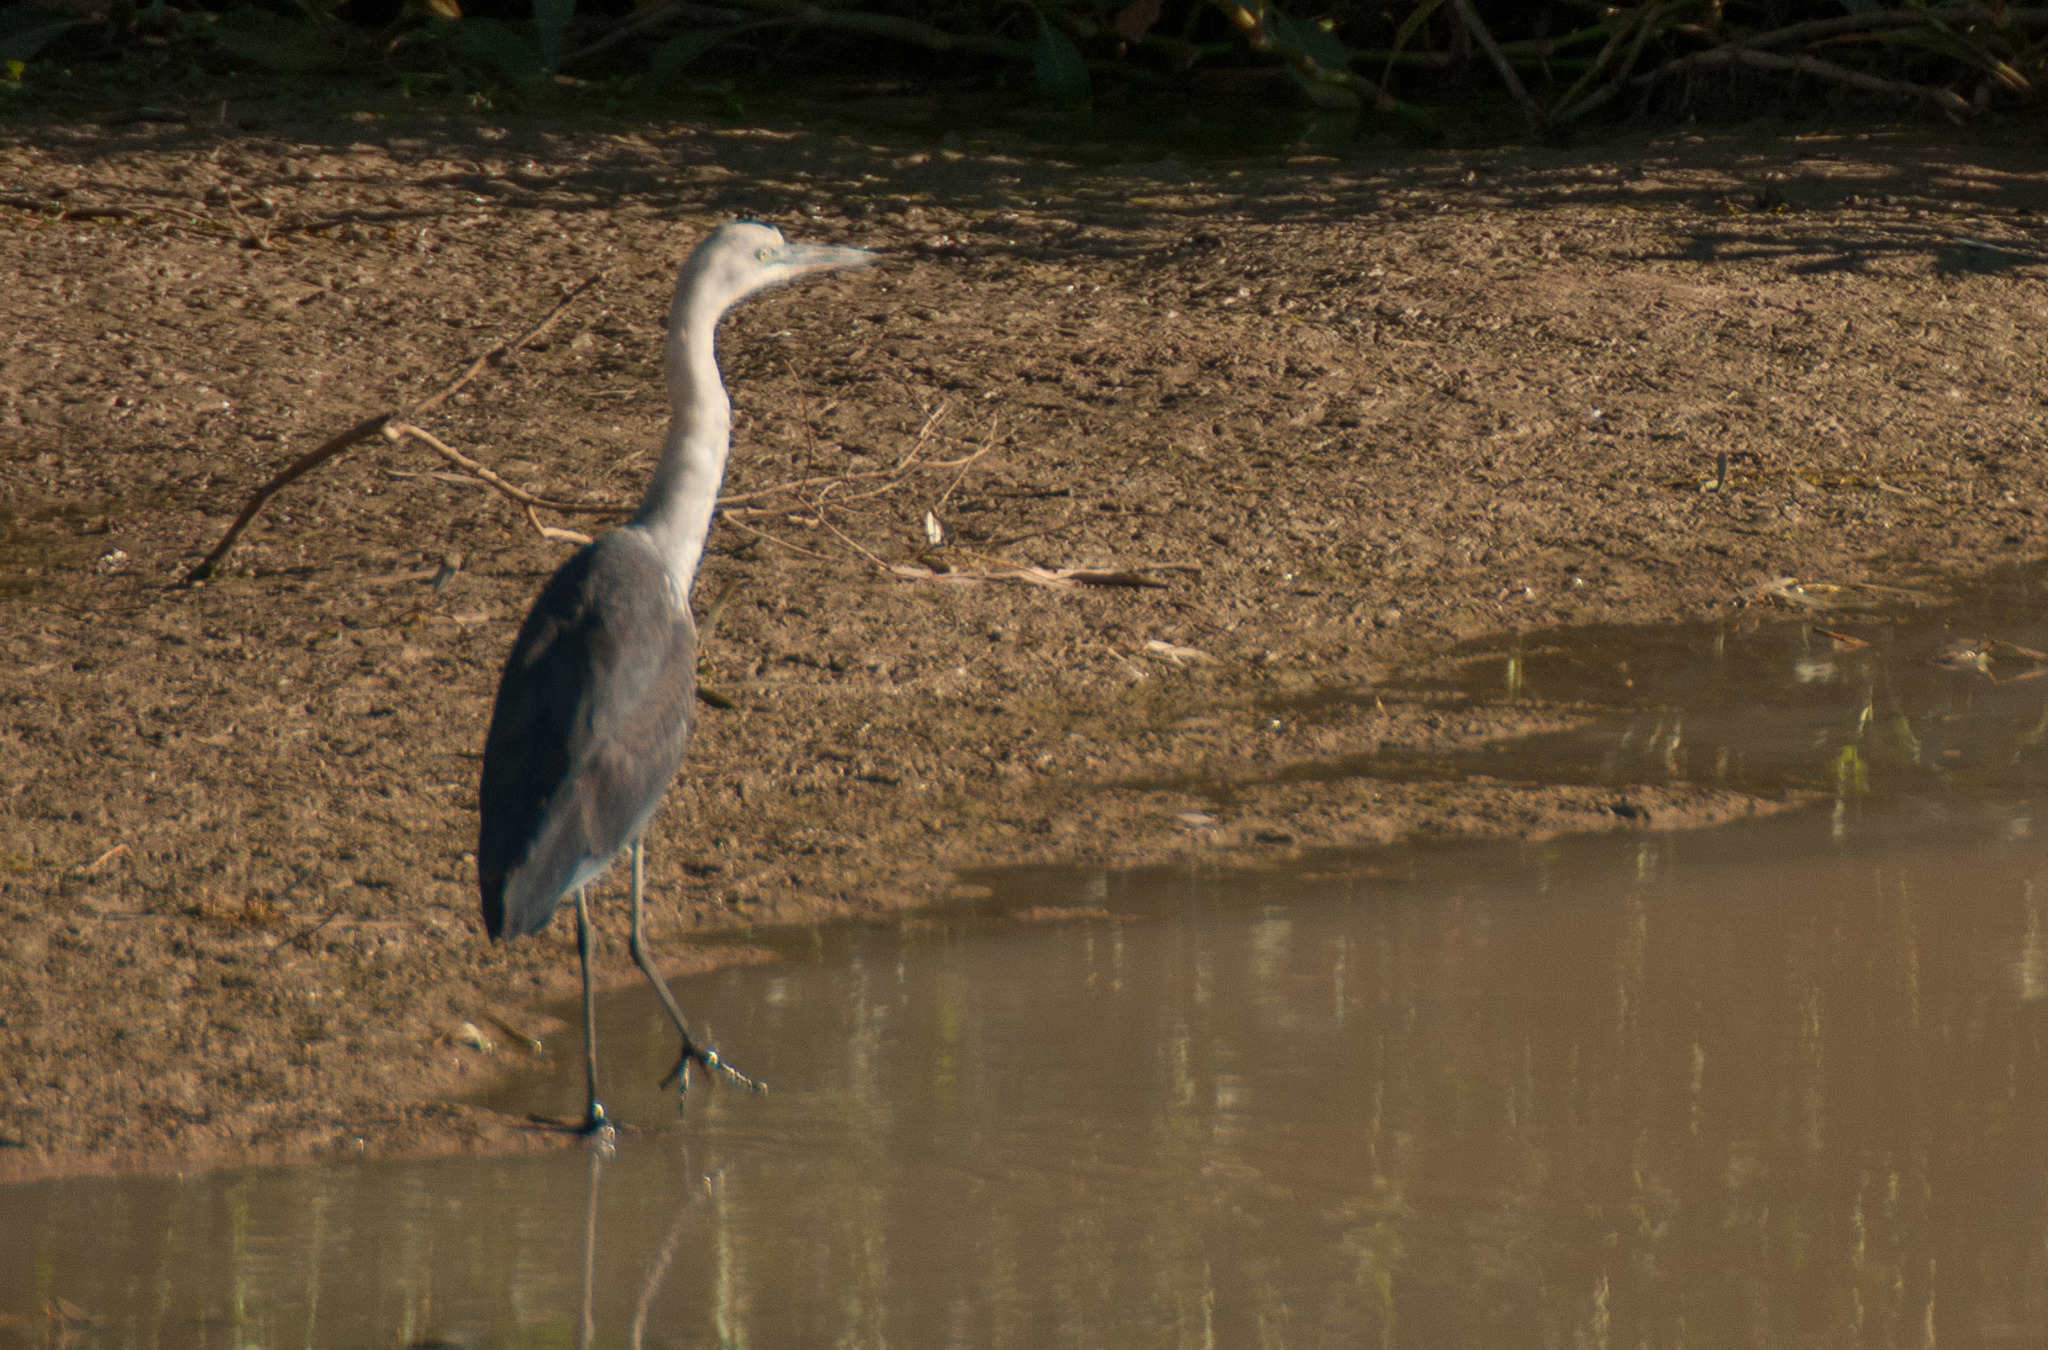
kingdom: Animalia
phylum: Chordata
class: Aves
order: Pelecaniformes
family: Ardeidae
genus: Ardea
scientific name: Ardea pacifica
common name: White-necked heron
